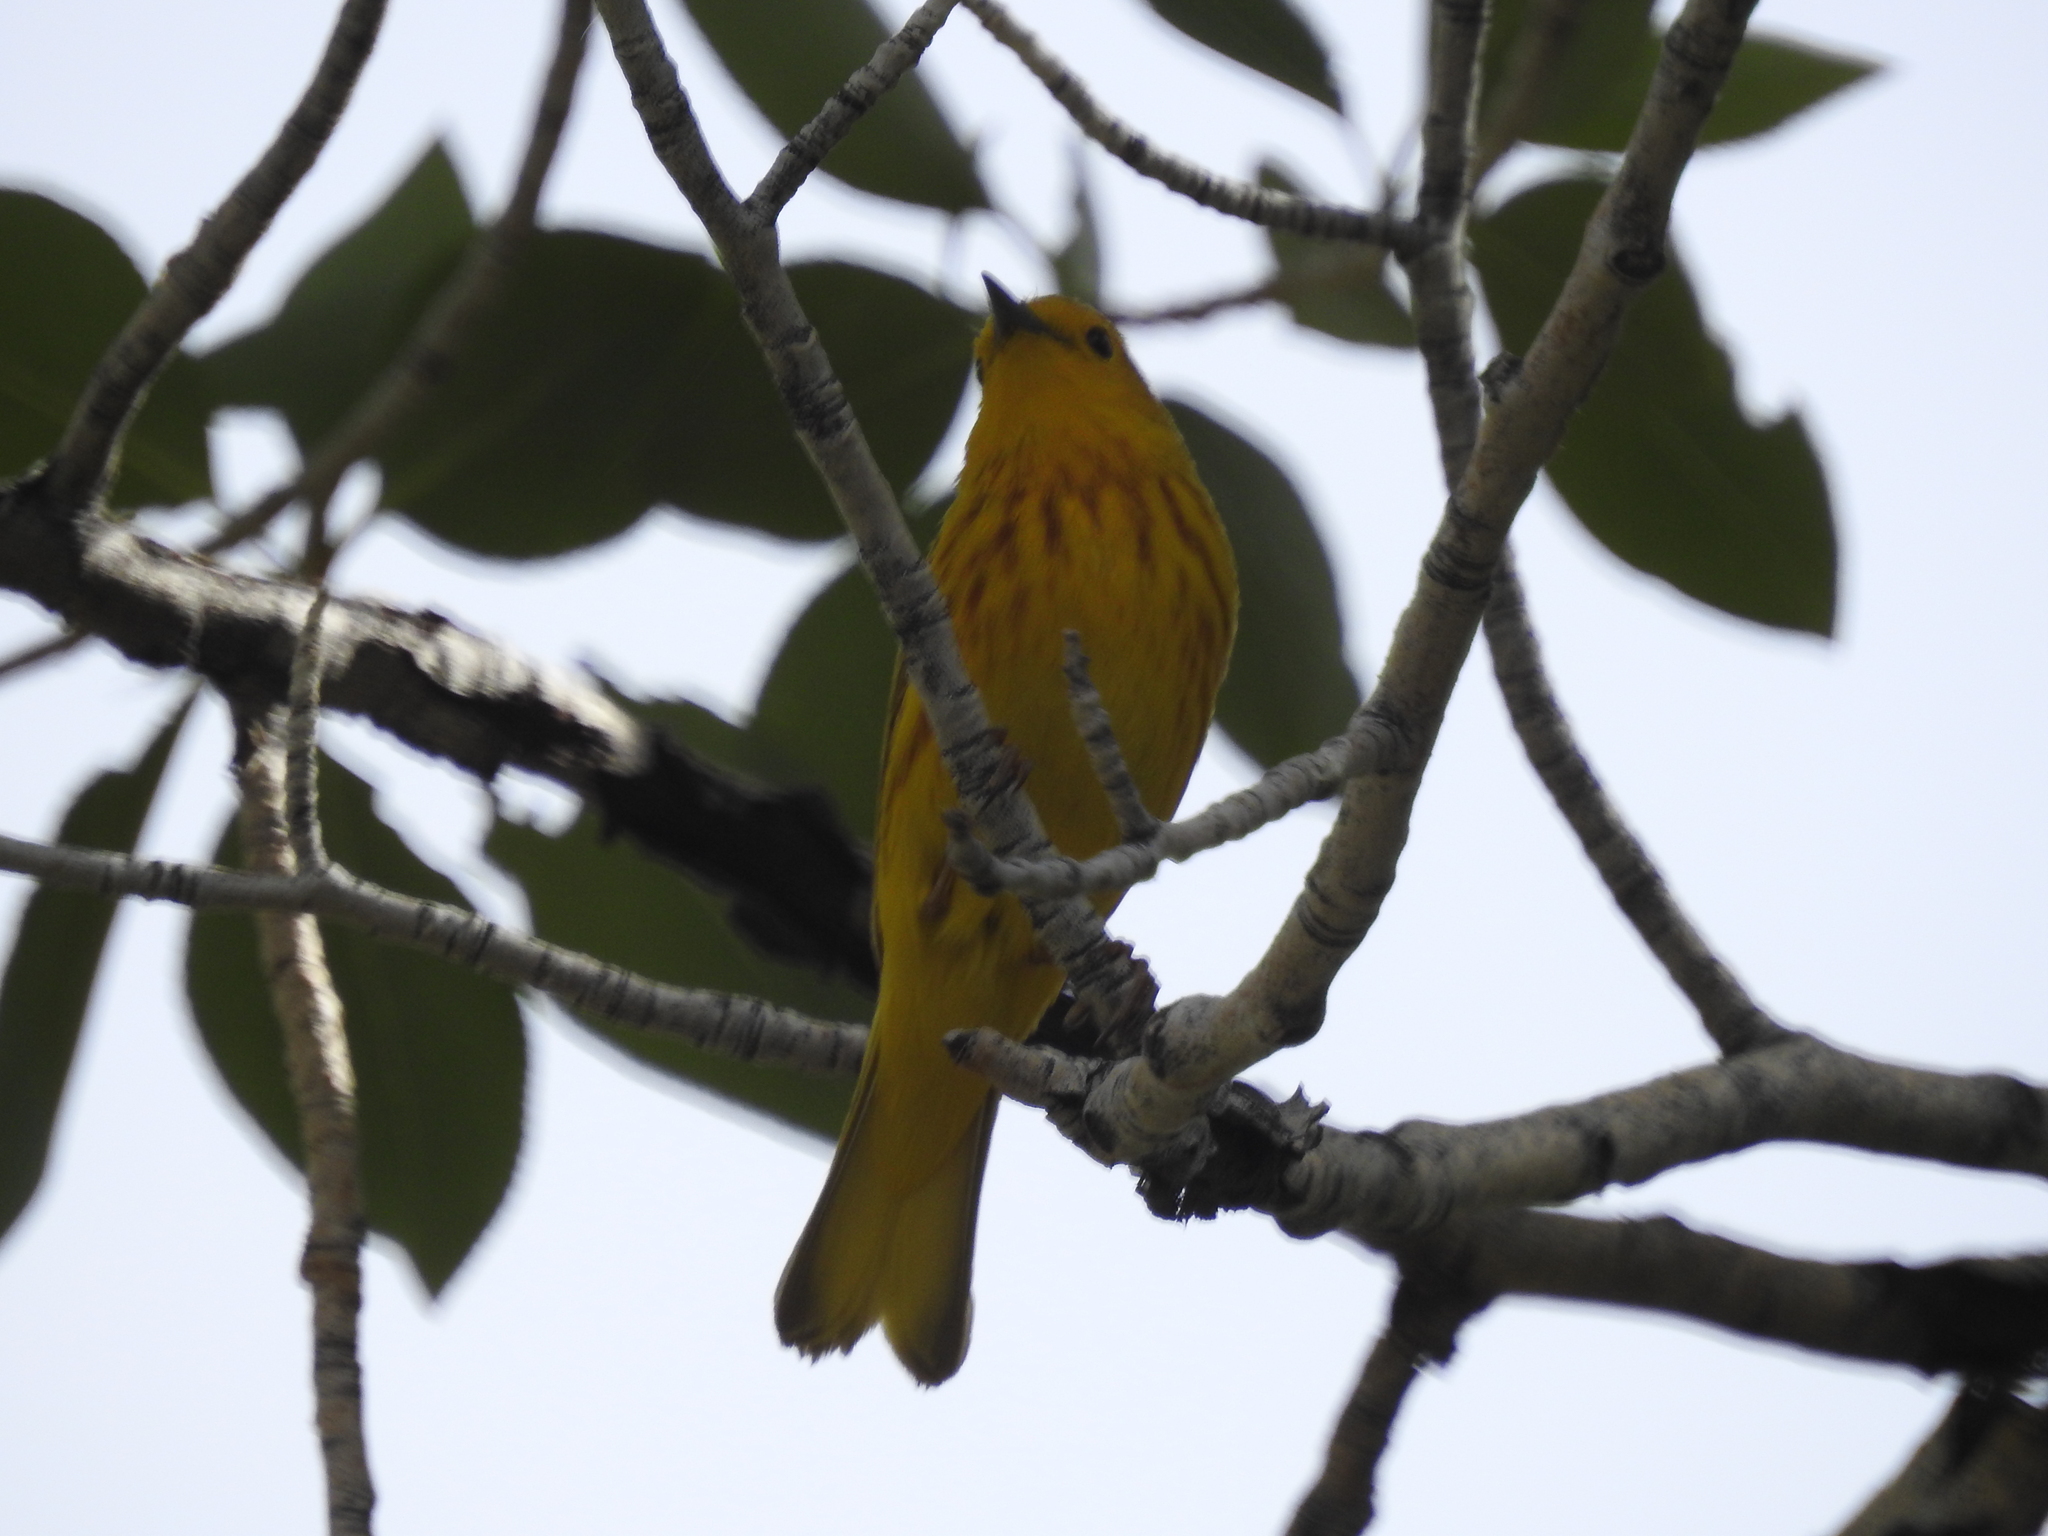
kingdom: Animalia
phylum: Chordata
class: Aves
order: Passeriformes
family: Parulidae
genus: Setophaga
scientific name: Setophaga petechia
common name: Yellow warbler
